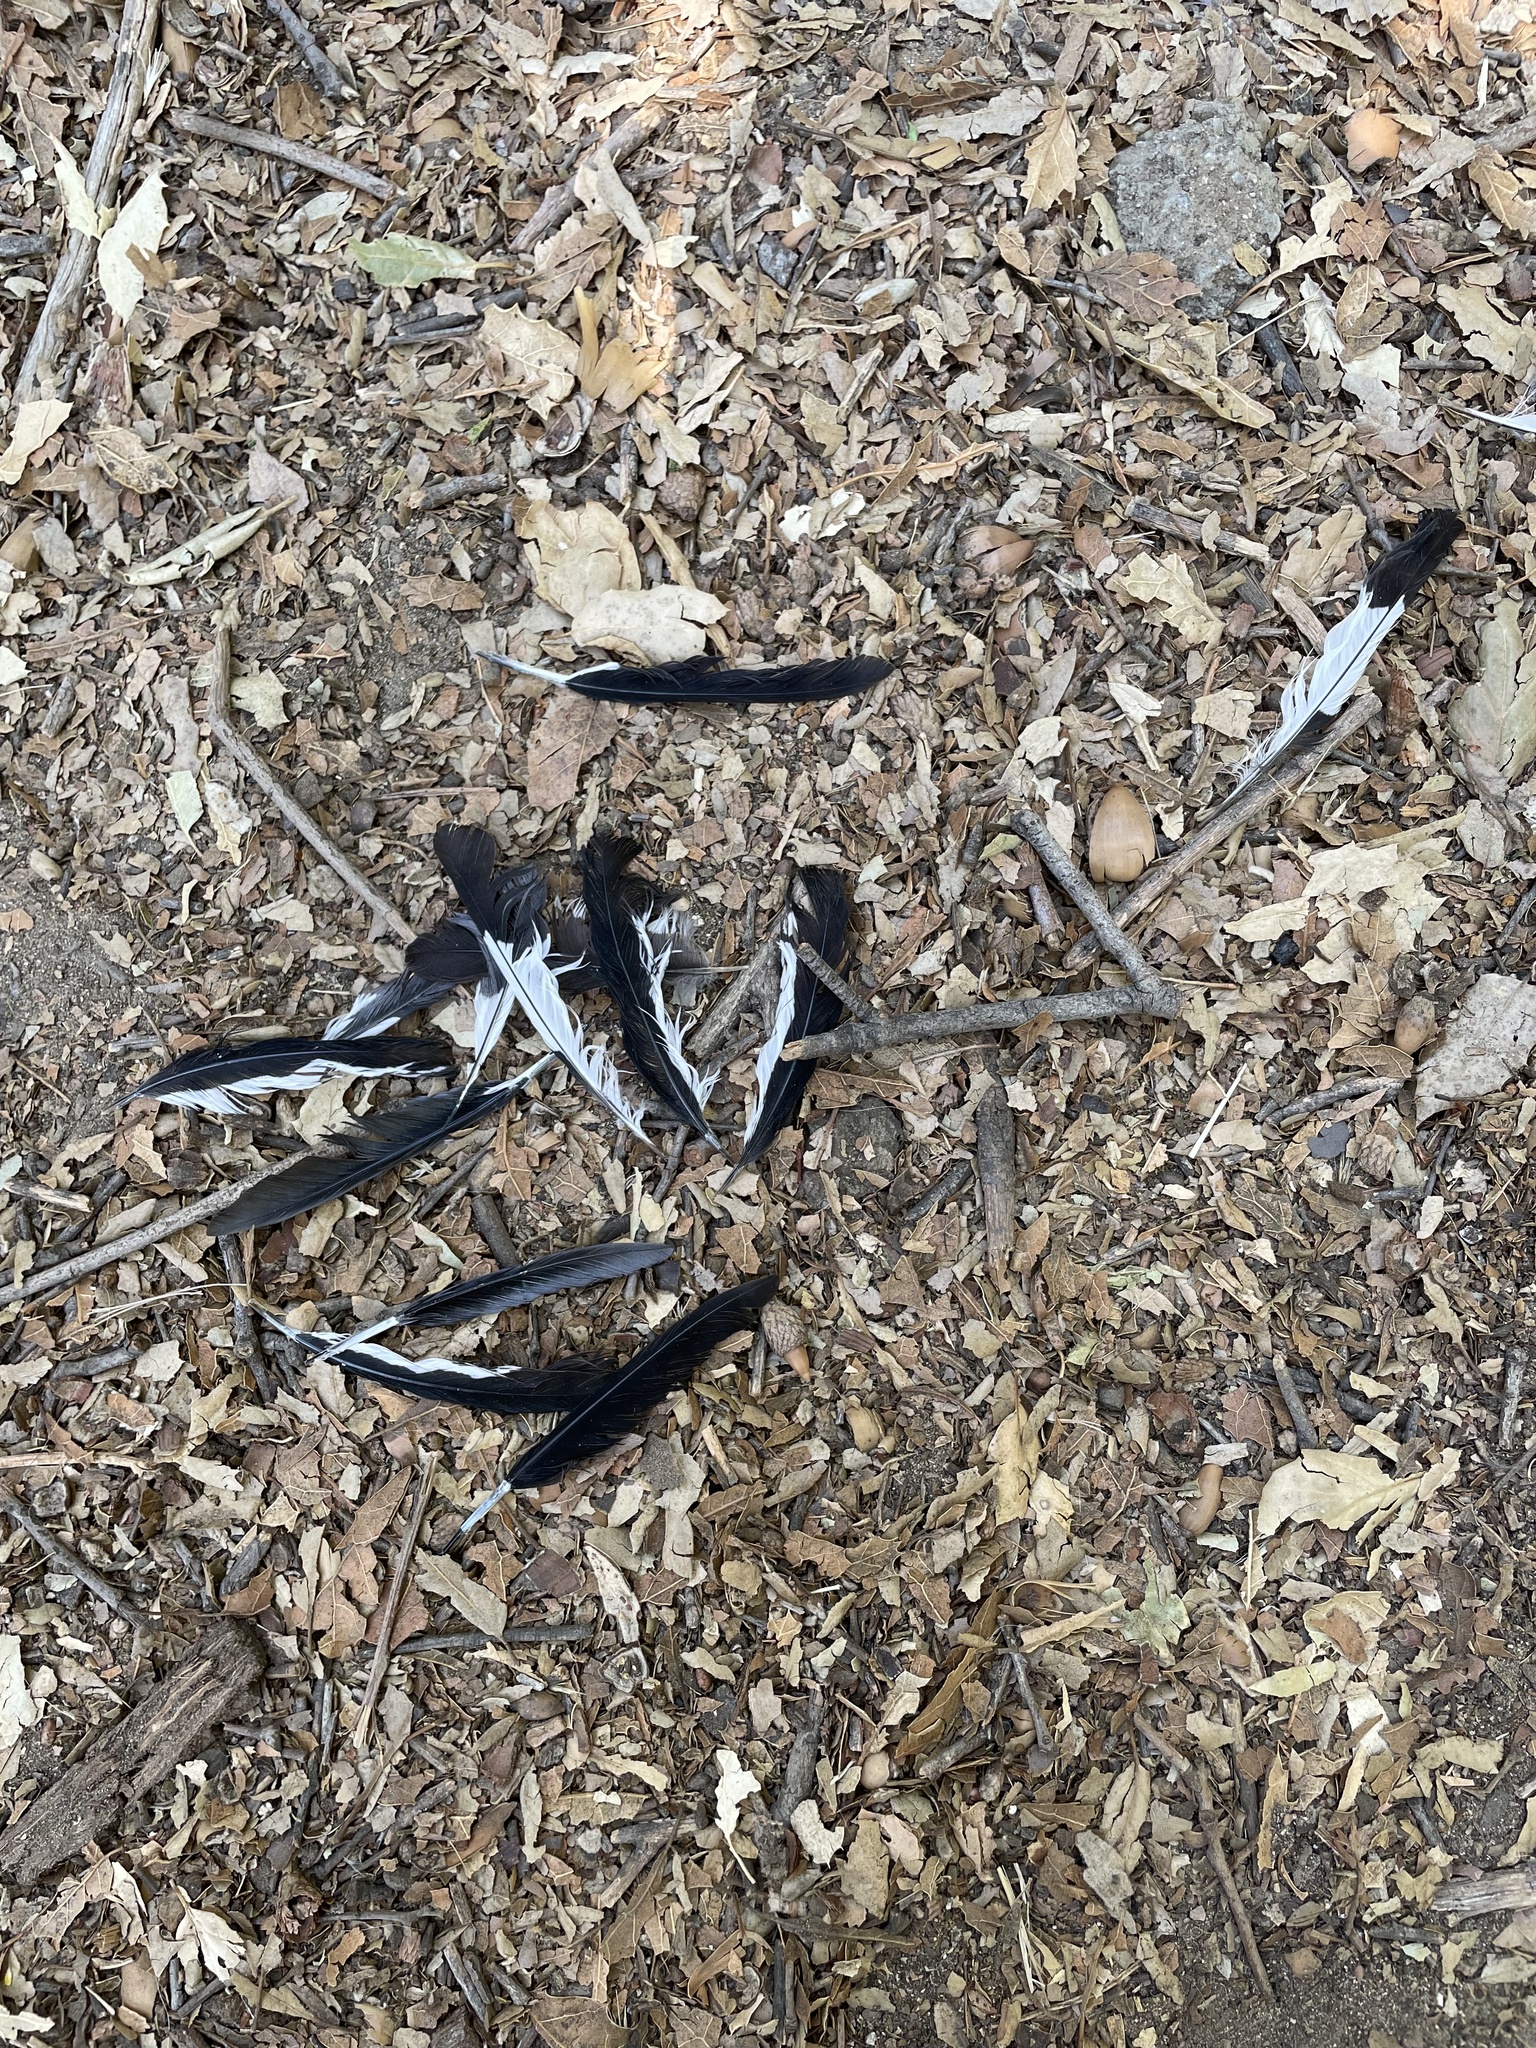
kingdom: Animalia
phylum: Chordata
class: Aves
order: Piciformes
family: Picidae
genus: Melanerpes
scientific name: Melanerpes formicivorus
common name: Acorn woodpecker
